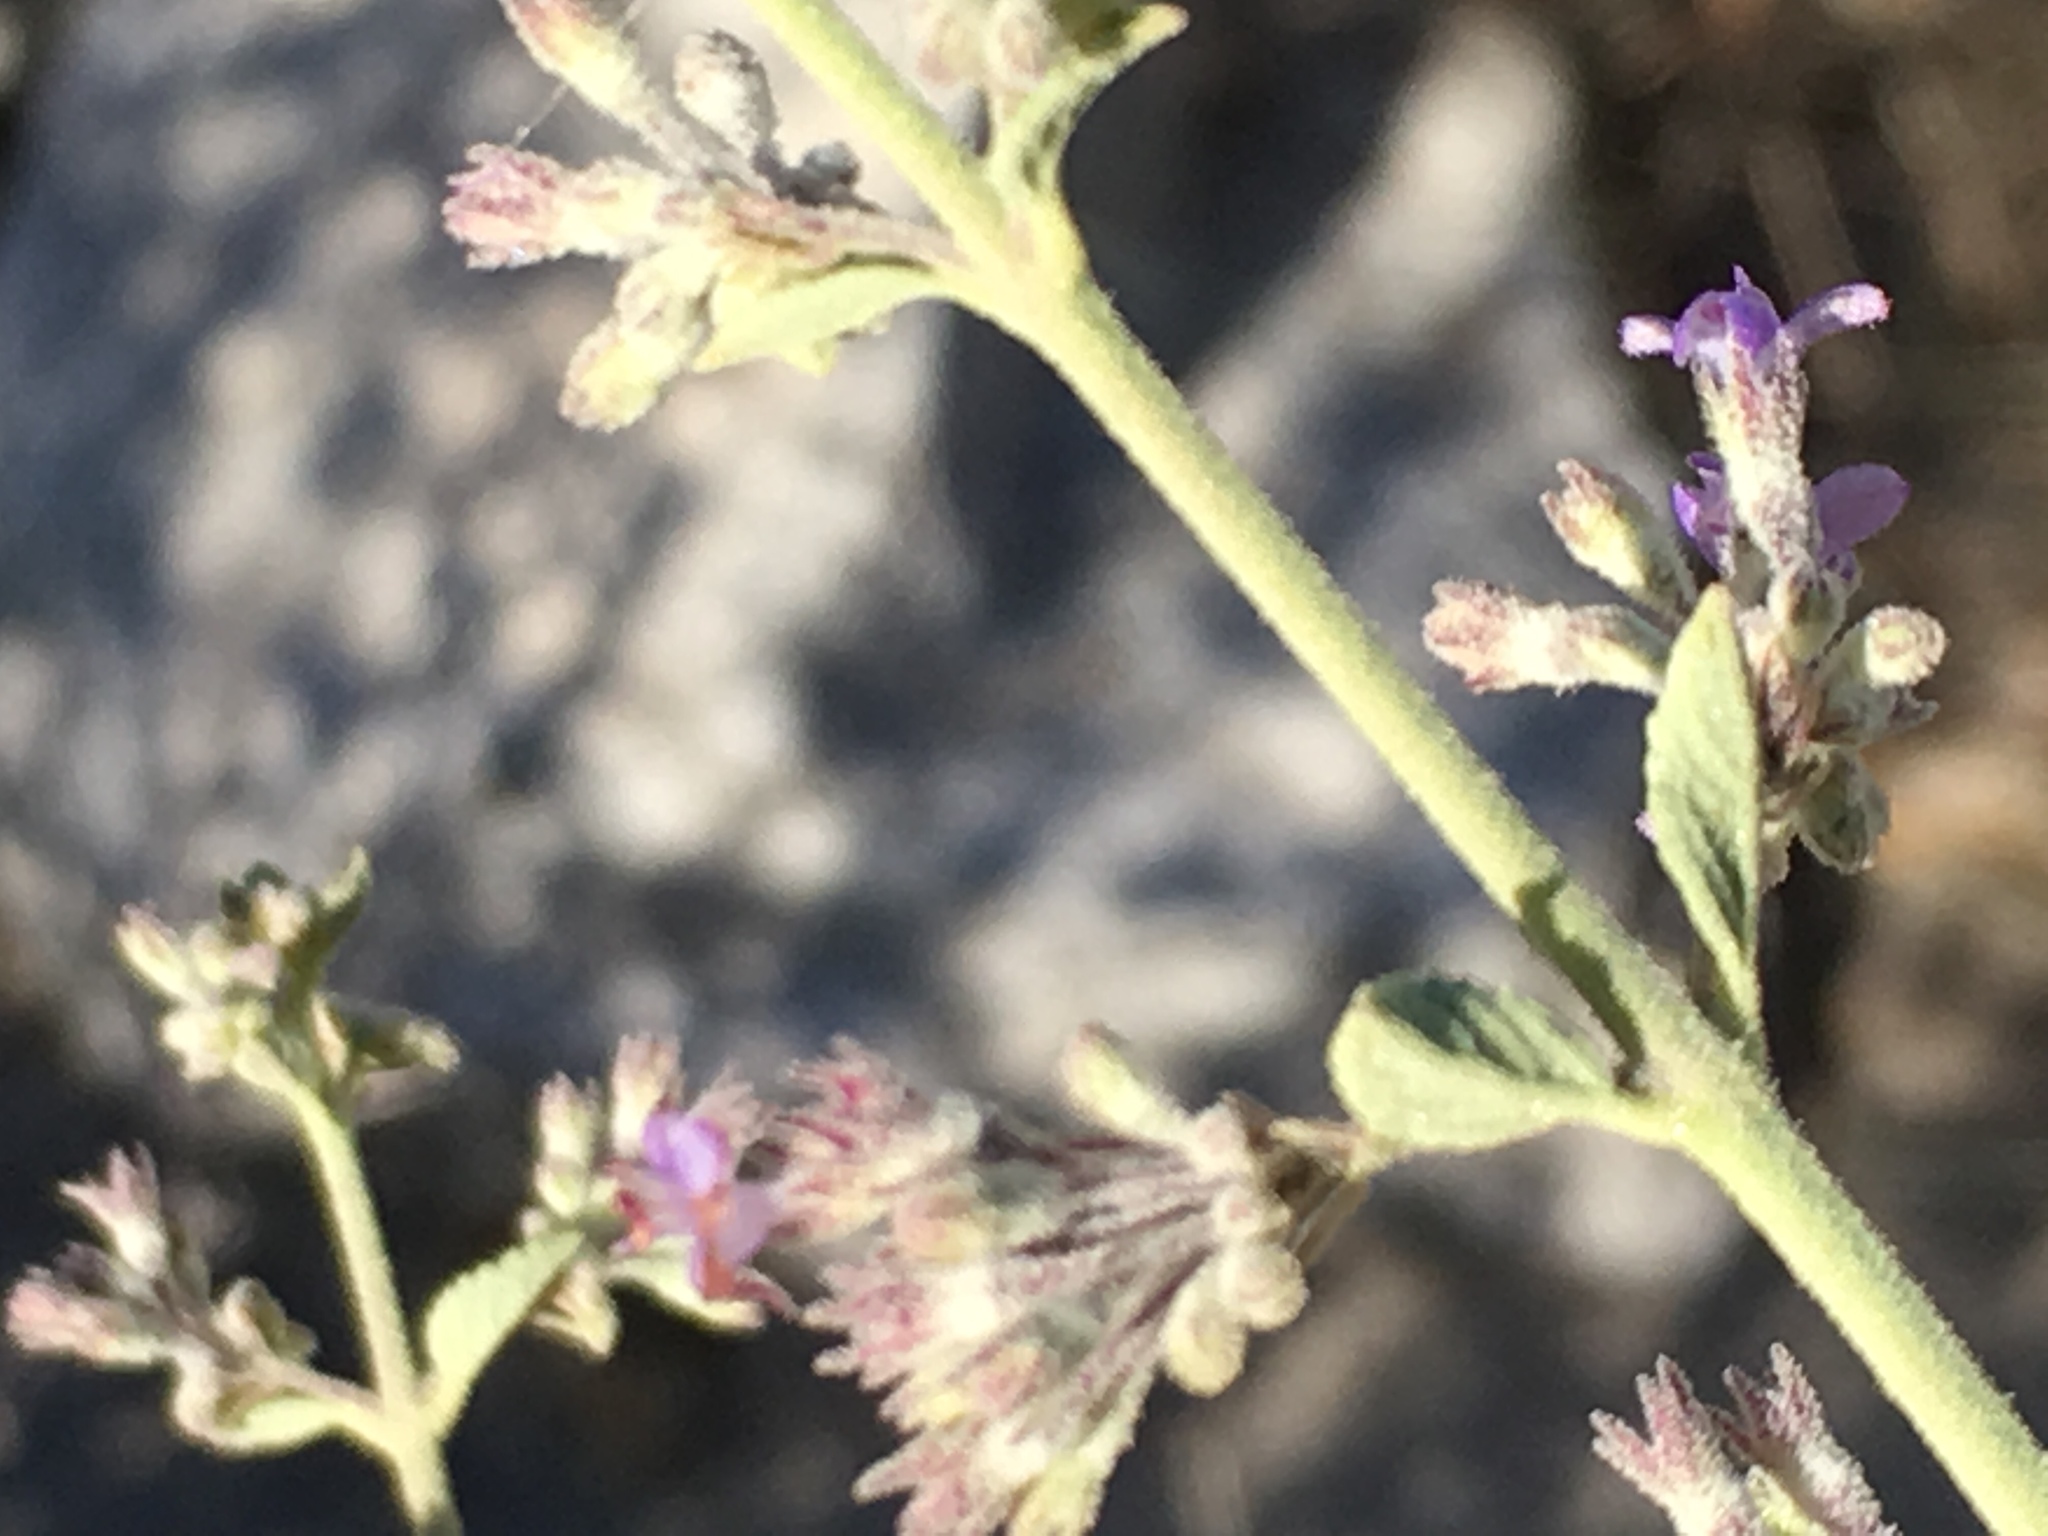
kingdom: Plantae
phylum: Tracheophyta
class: Magnoliopsida
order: Lamiales
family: Lamiaceae
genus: Condea
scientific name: Condea emoryi
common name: Chia
